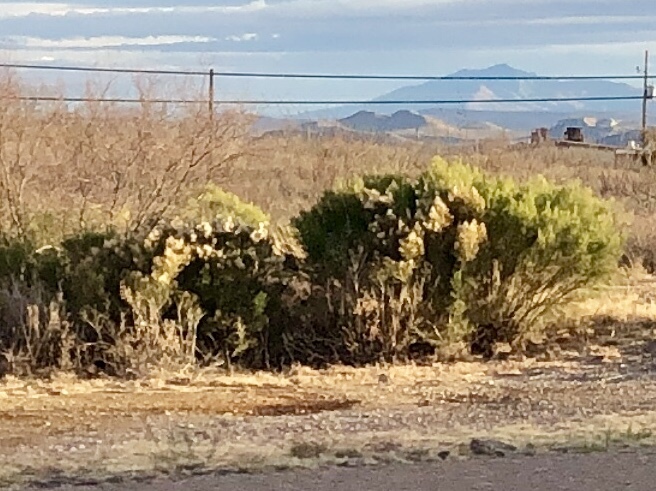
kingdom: Plantae
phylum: Tracheophyta
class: Magnoliopsida
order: Asterales
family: Asteraceae
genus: Baccharis
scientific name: Baccharis sarothroides
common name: Desert-broom
